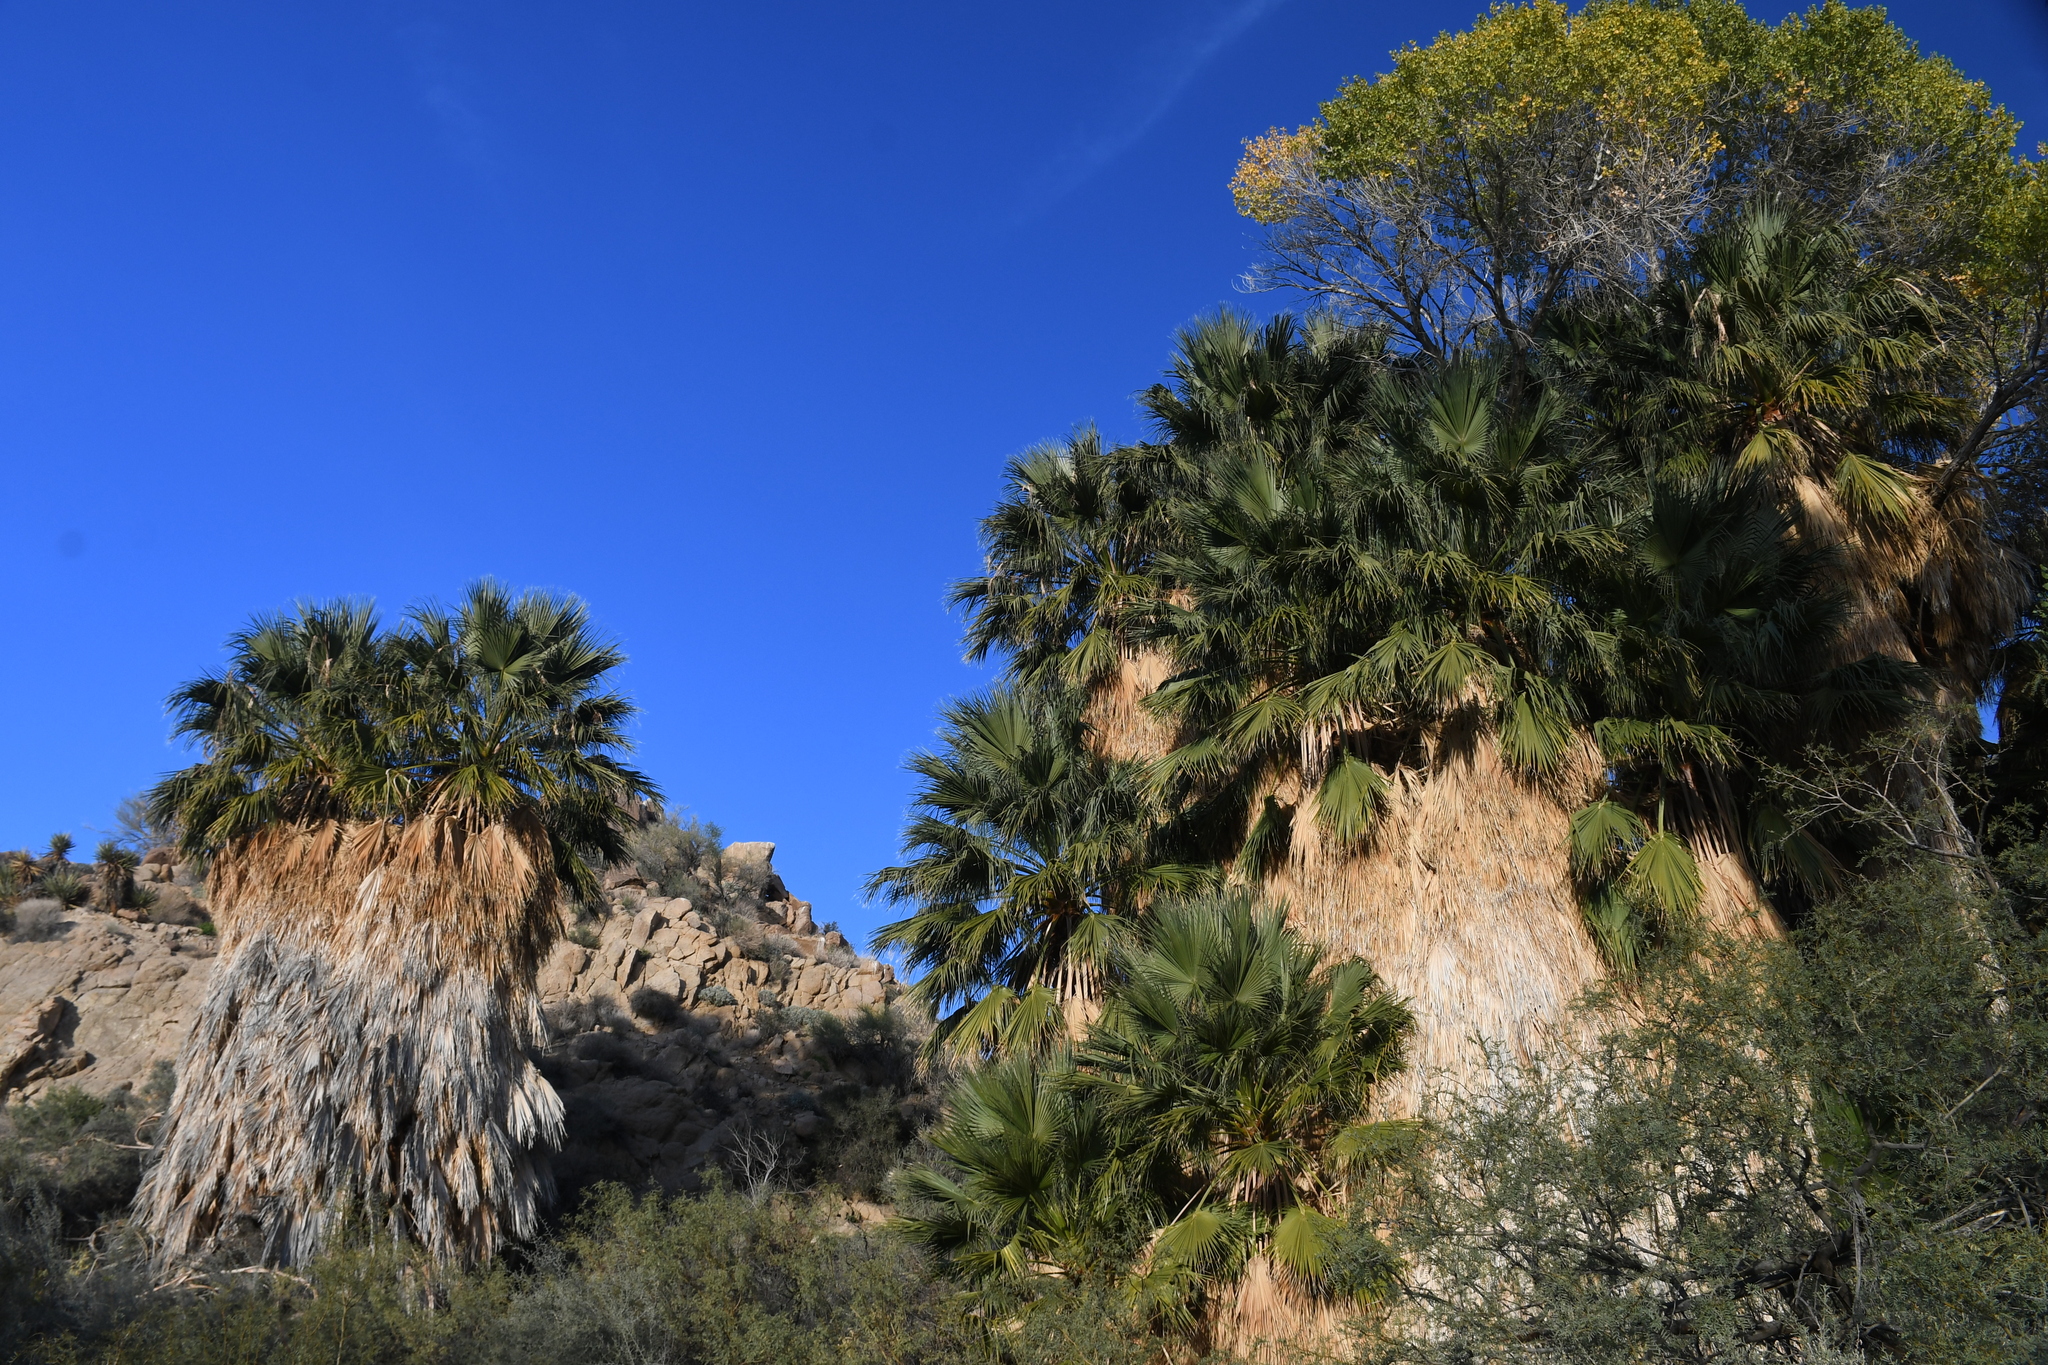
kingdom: Plantae
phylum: Tracheophyta
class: Liliopsida
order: Arecales
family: Arecaceae
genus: Washingtonia
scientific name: Washingtonia filifera
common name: California fan palm
